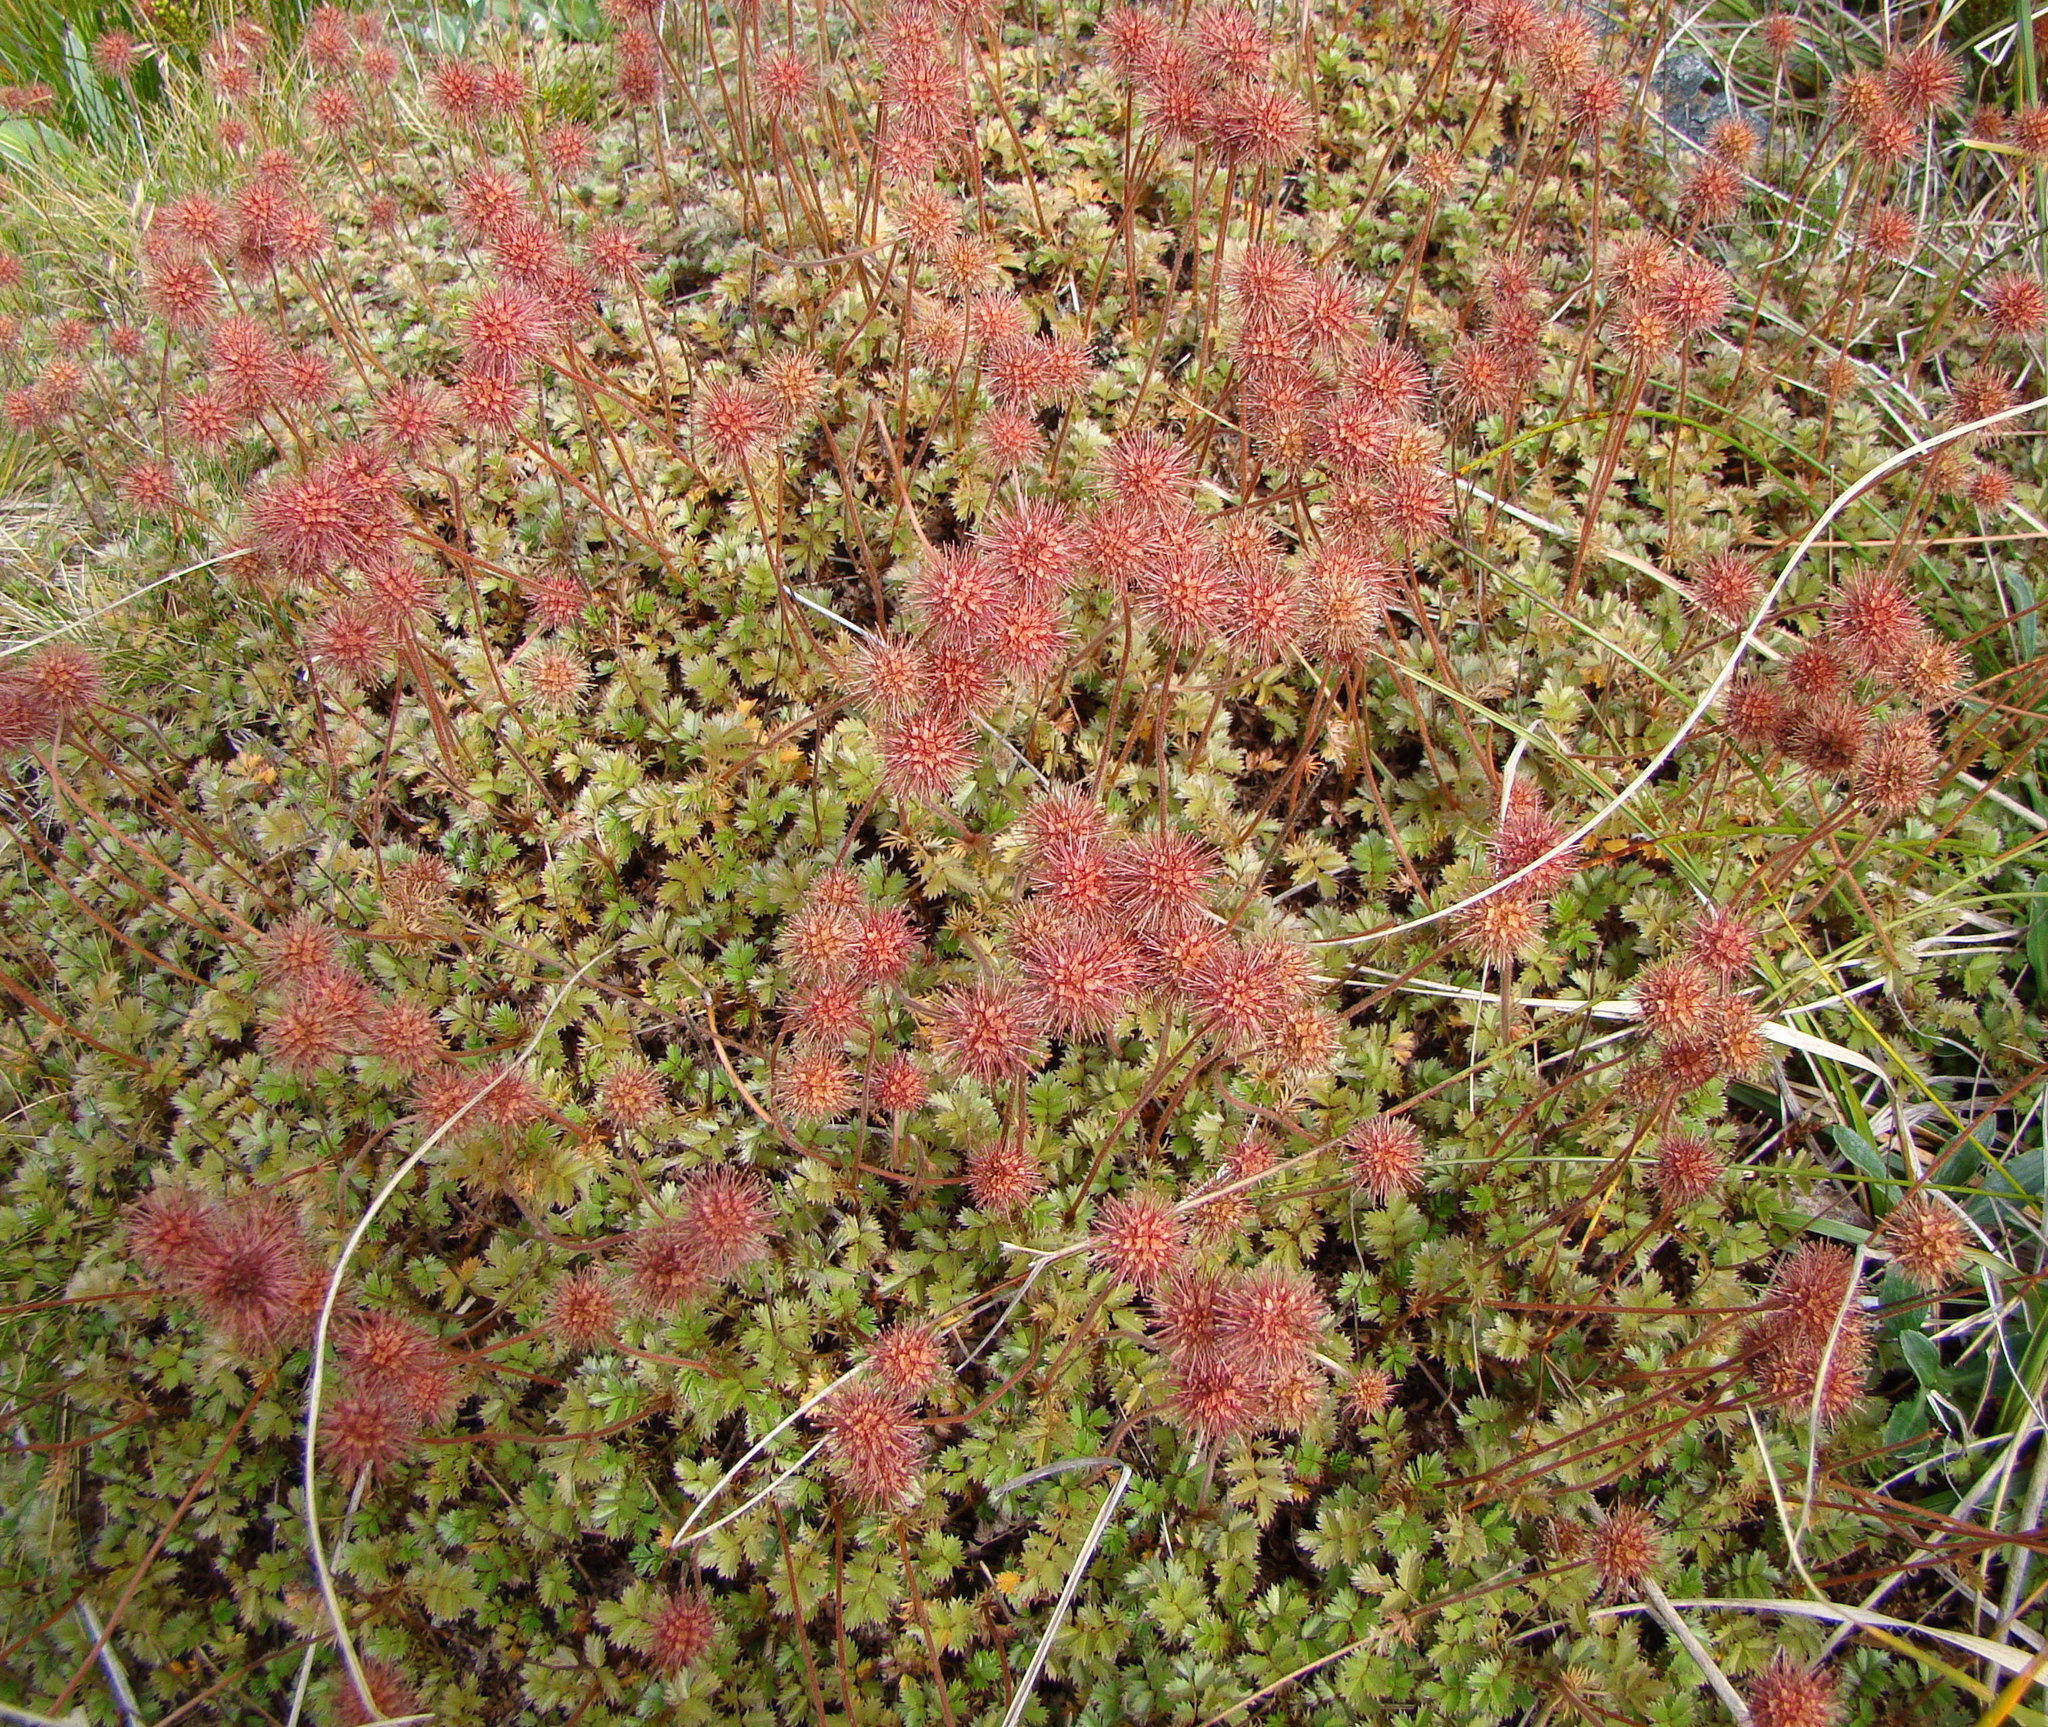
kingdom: Plantae
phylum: Tracheophyta
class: Magnoliopsida
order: Rosales
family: Rosaceae
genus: Acaena
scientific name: Acaena anserinifolia
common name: Bronze pirri-pirri-bur
